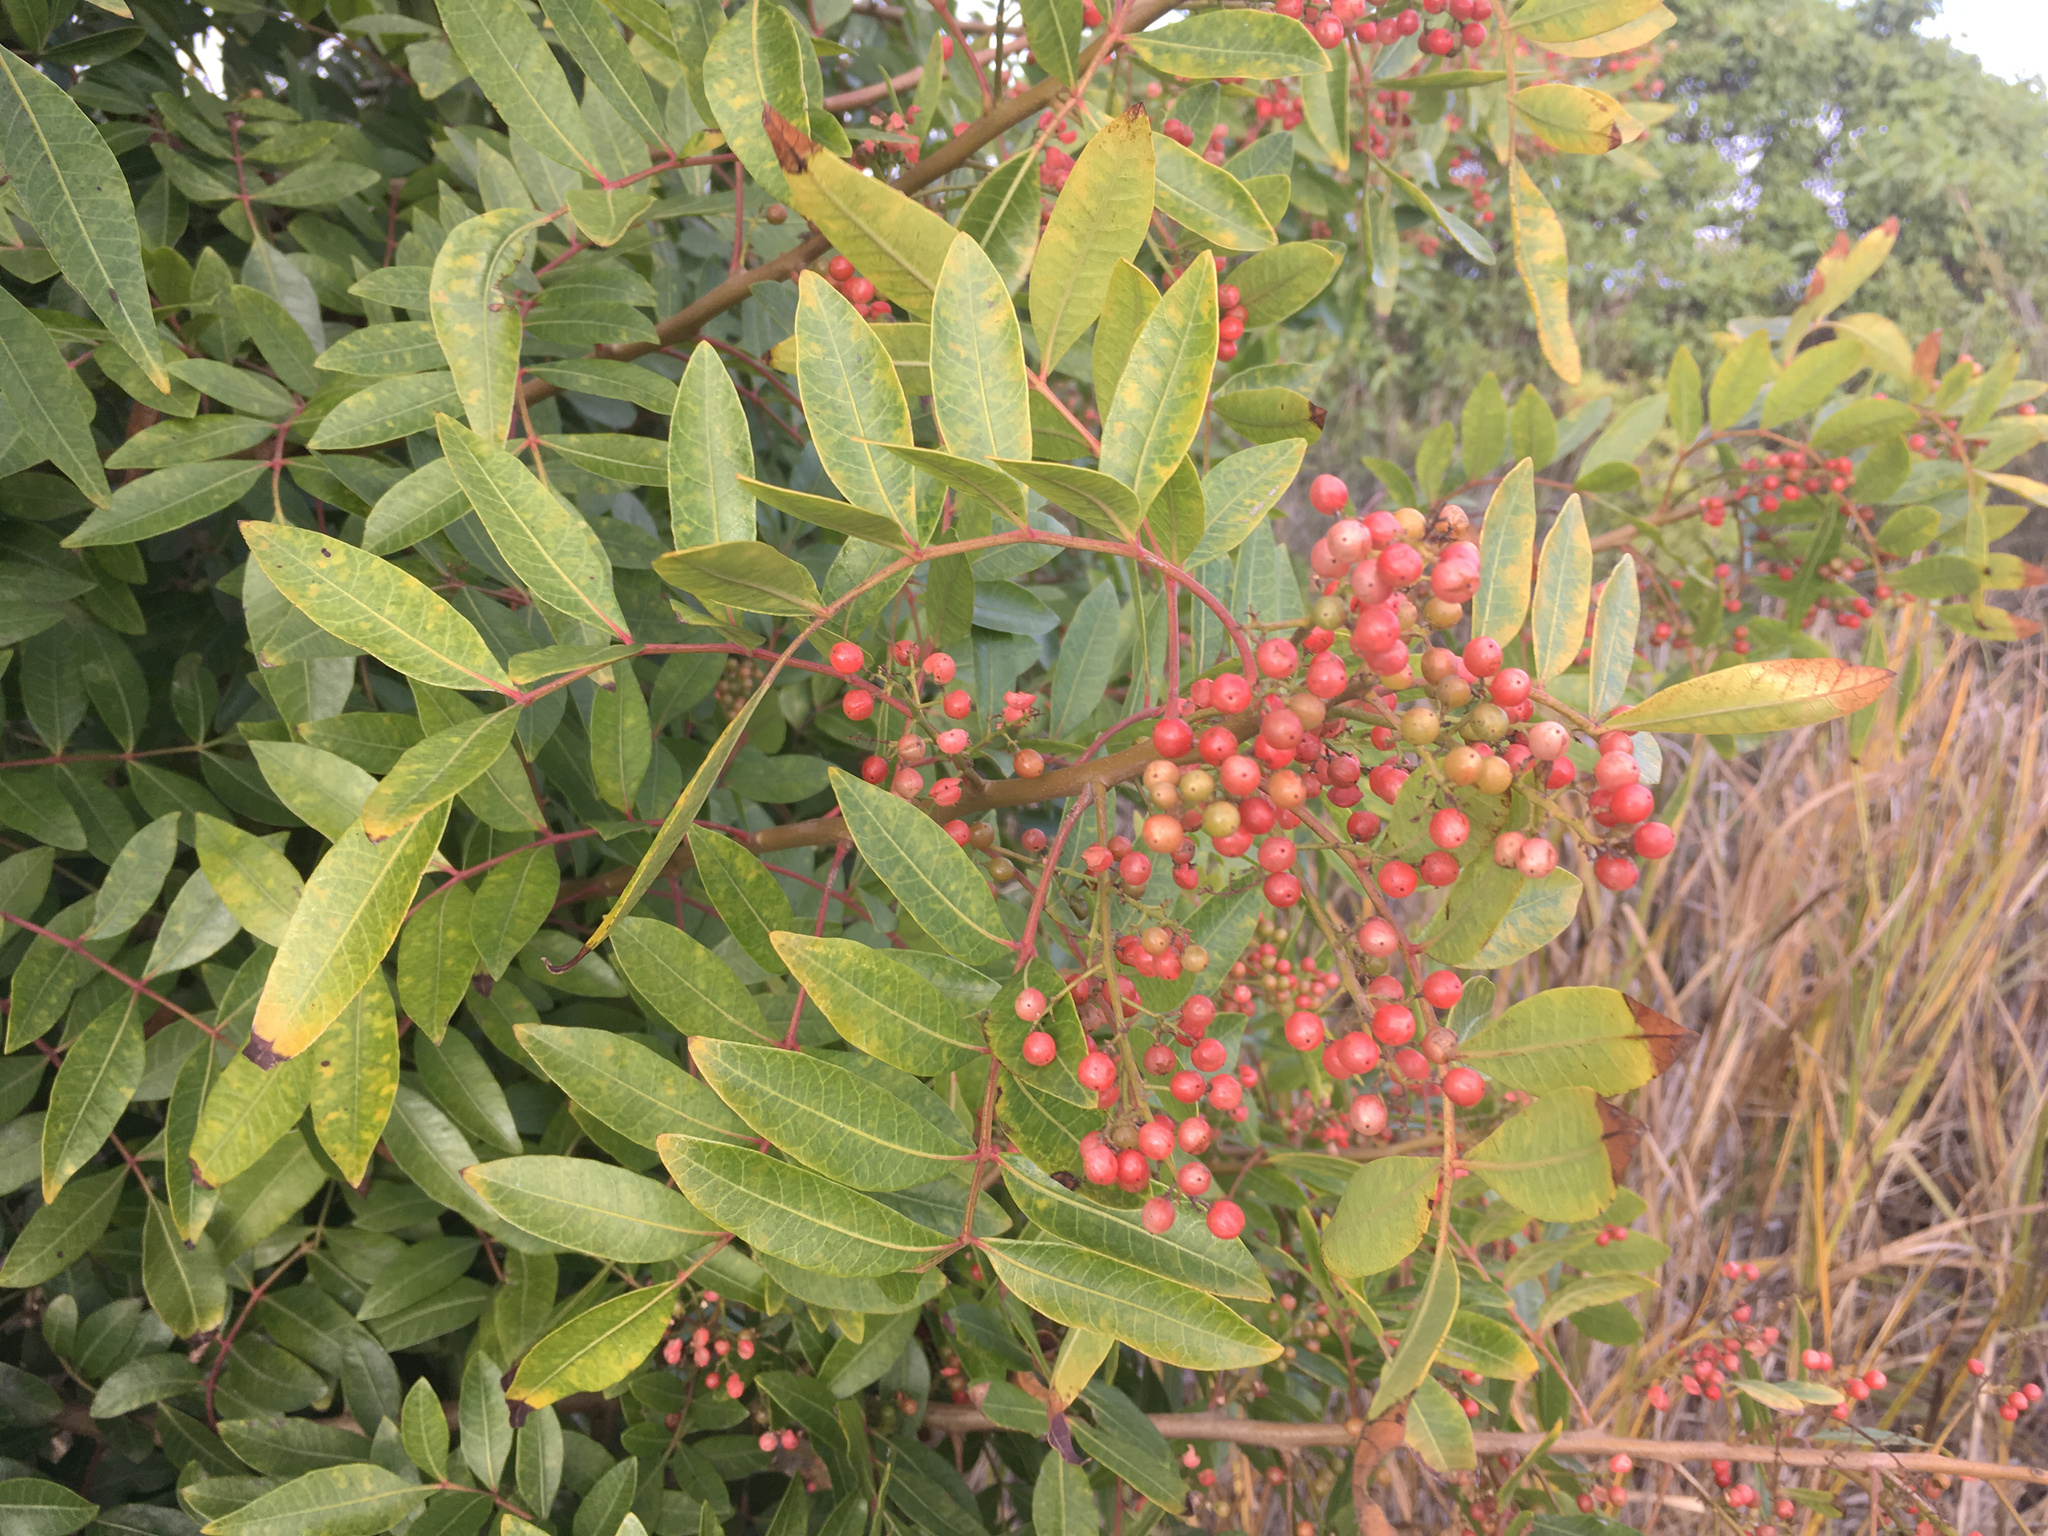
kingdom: Plantae
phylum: Tracheophyta
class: Magnoliopsida
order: Sapindales
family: Anacardiaceae
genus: Schinus
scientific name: Schinus terebinthifolia
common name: Brazilian peppertree
